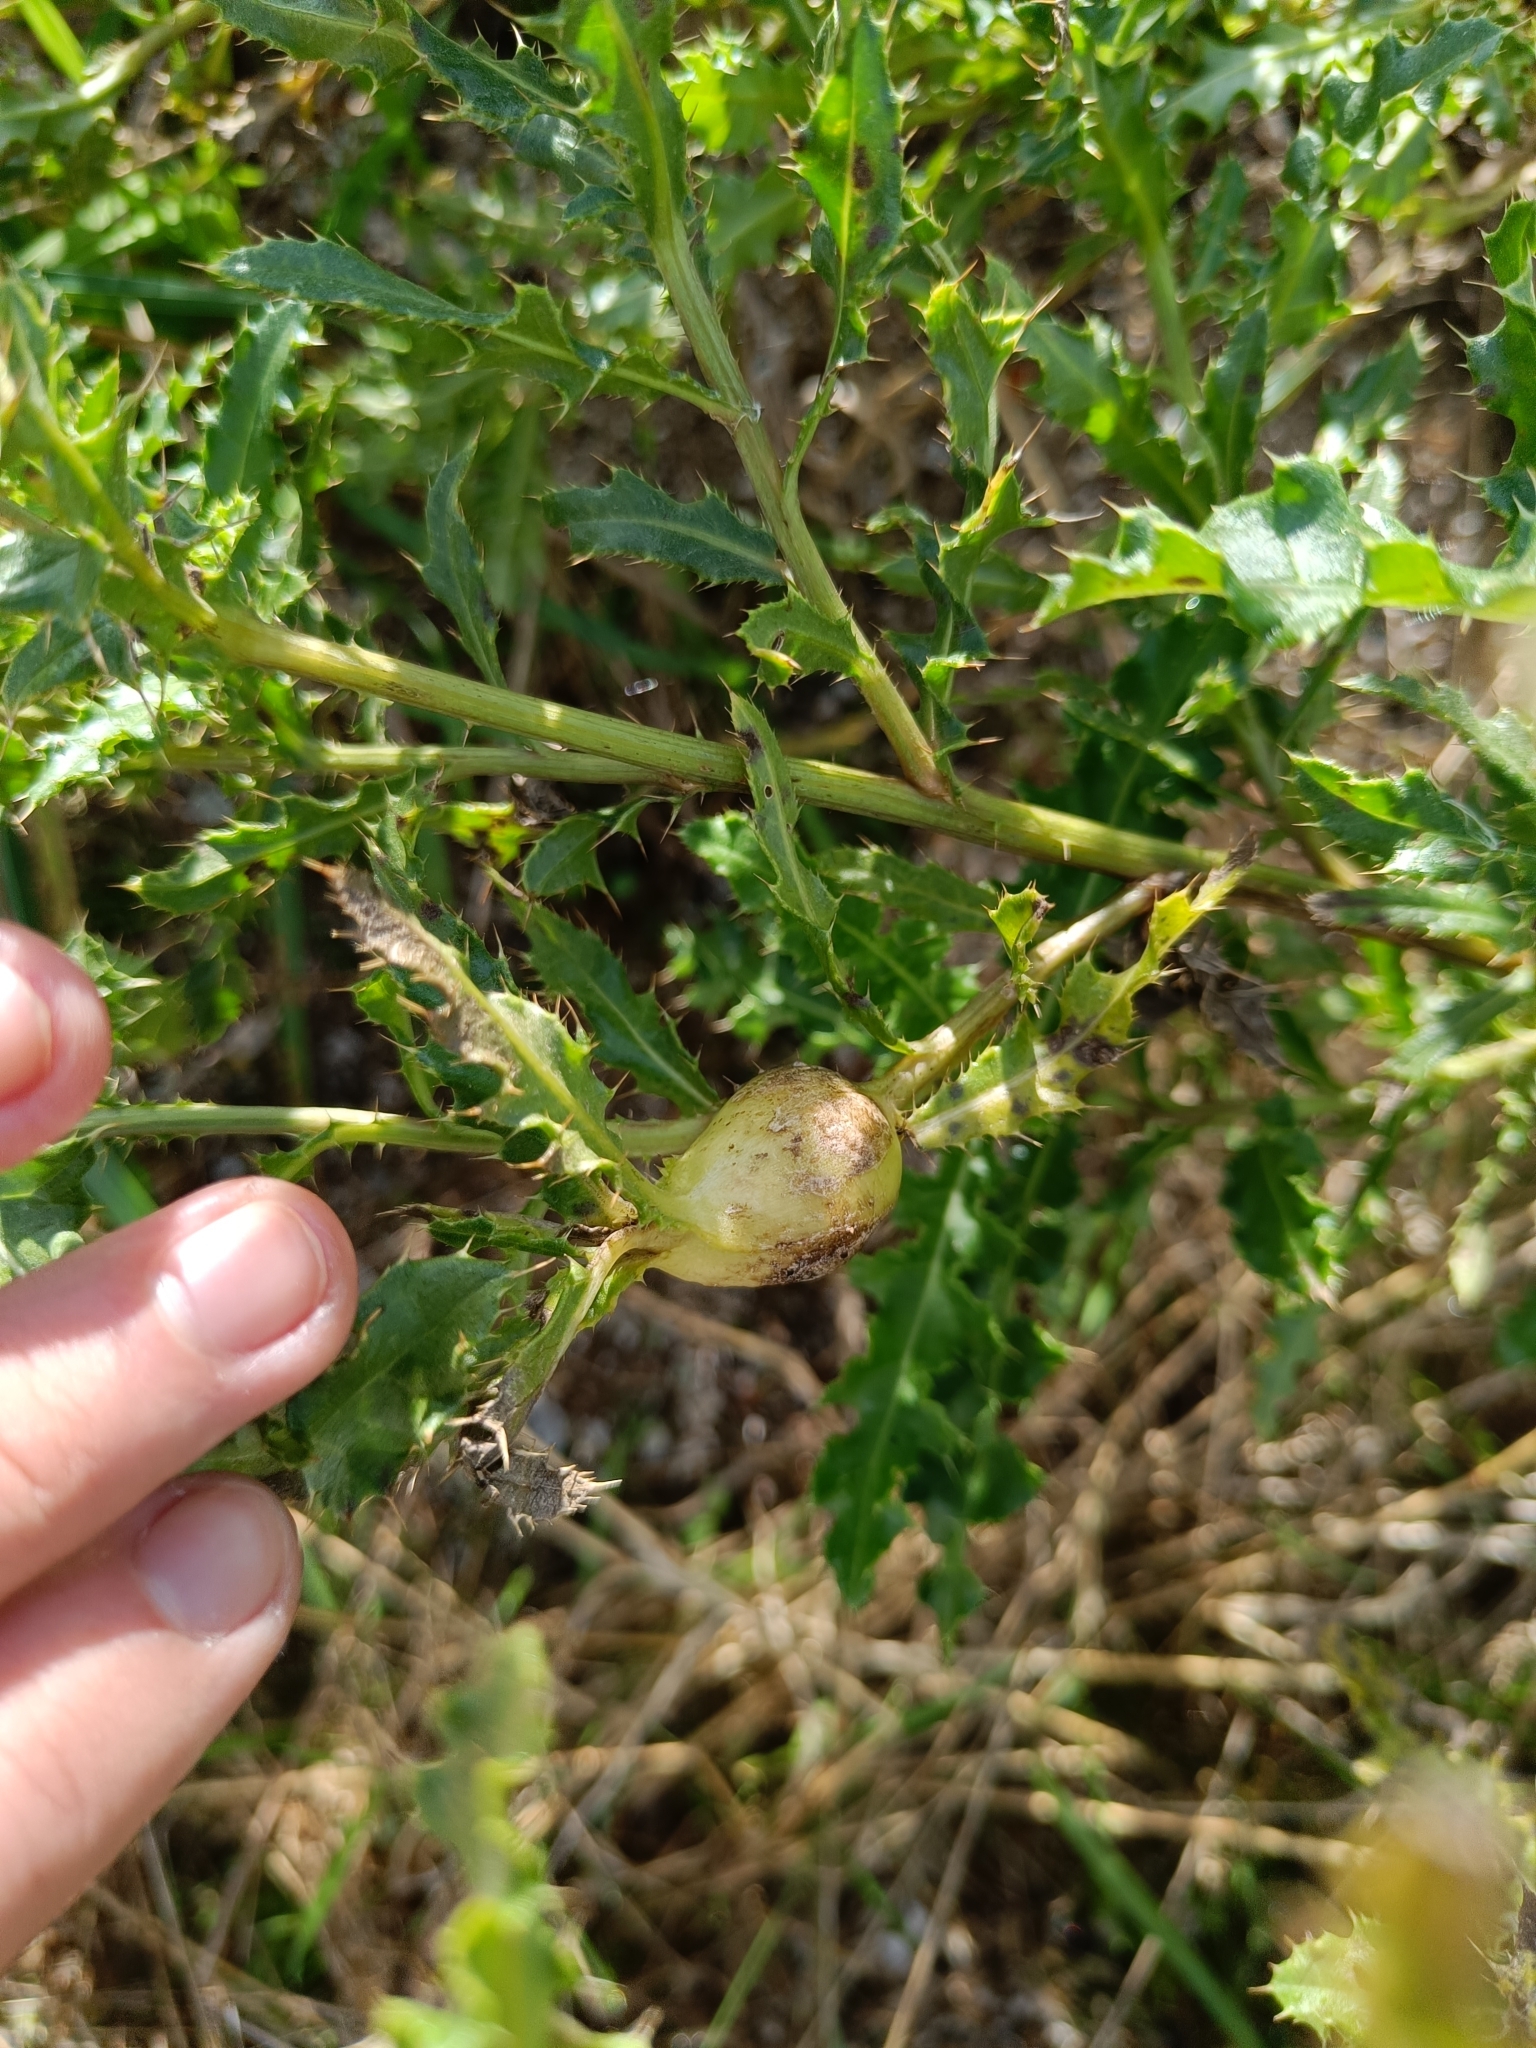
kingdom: Animalia
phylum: Arthropoda
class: Insecta
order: Diptera
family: Tephritidae
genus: Urophora
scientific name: Urophora cardui
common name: Fruit fly
